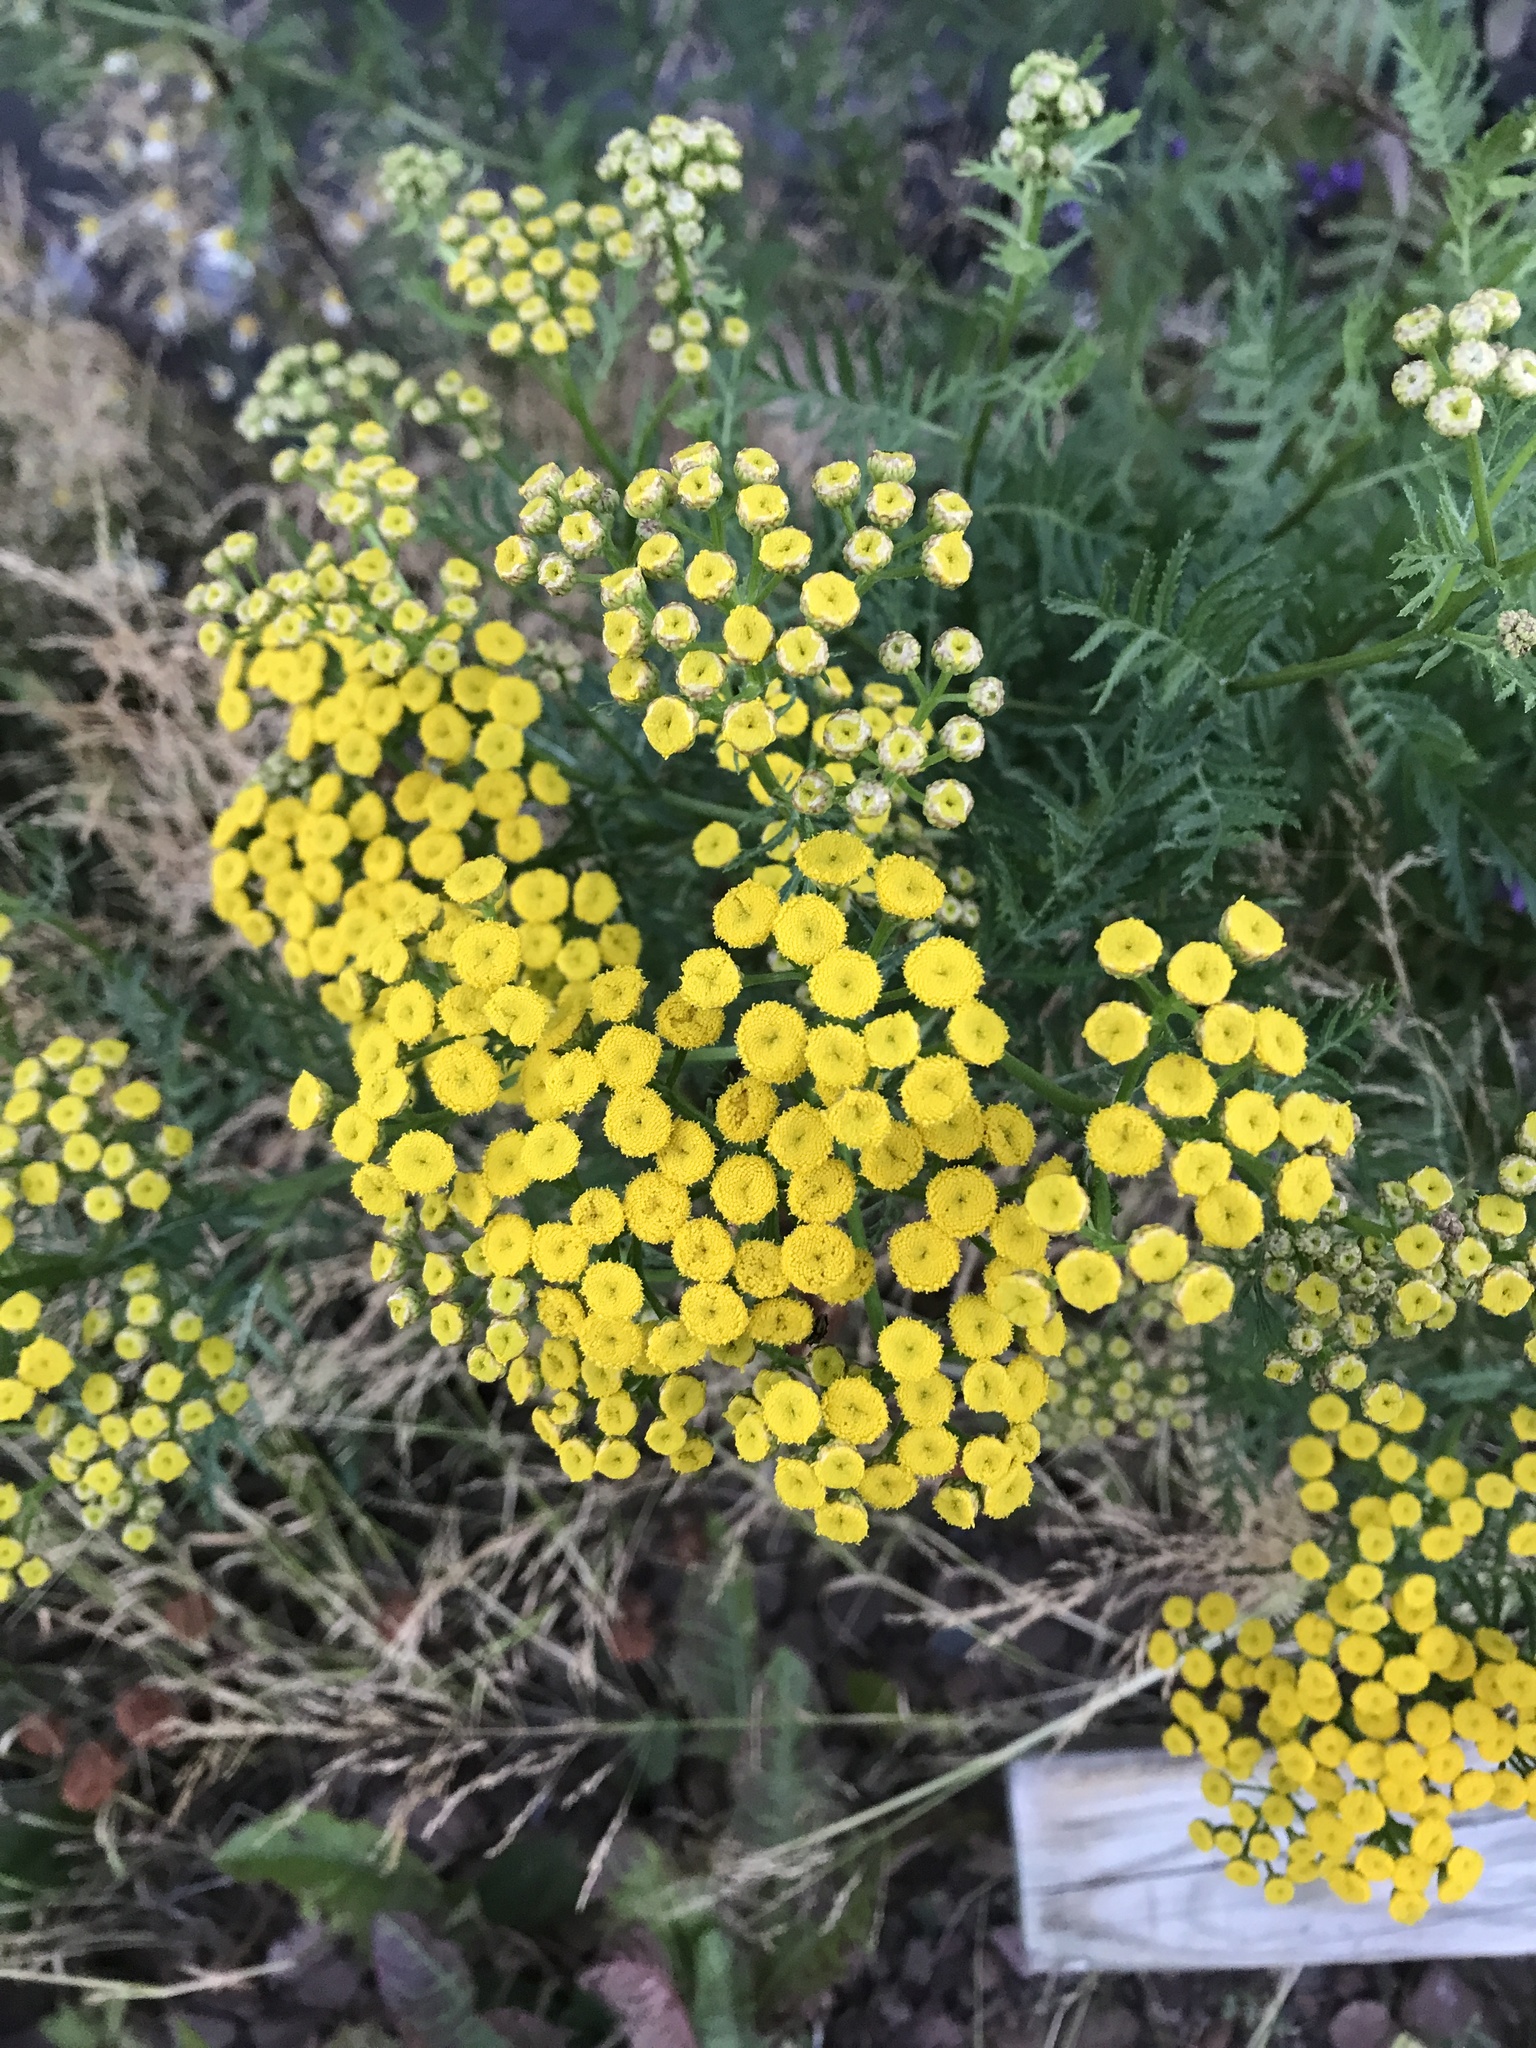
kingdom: Plantae
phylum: Tracheophyta
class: Magnoliopsida
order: Asterales
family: Asteraceae
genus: Tanacetum
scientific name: Tanacetum vulgare
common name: Common tansy
